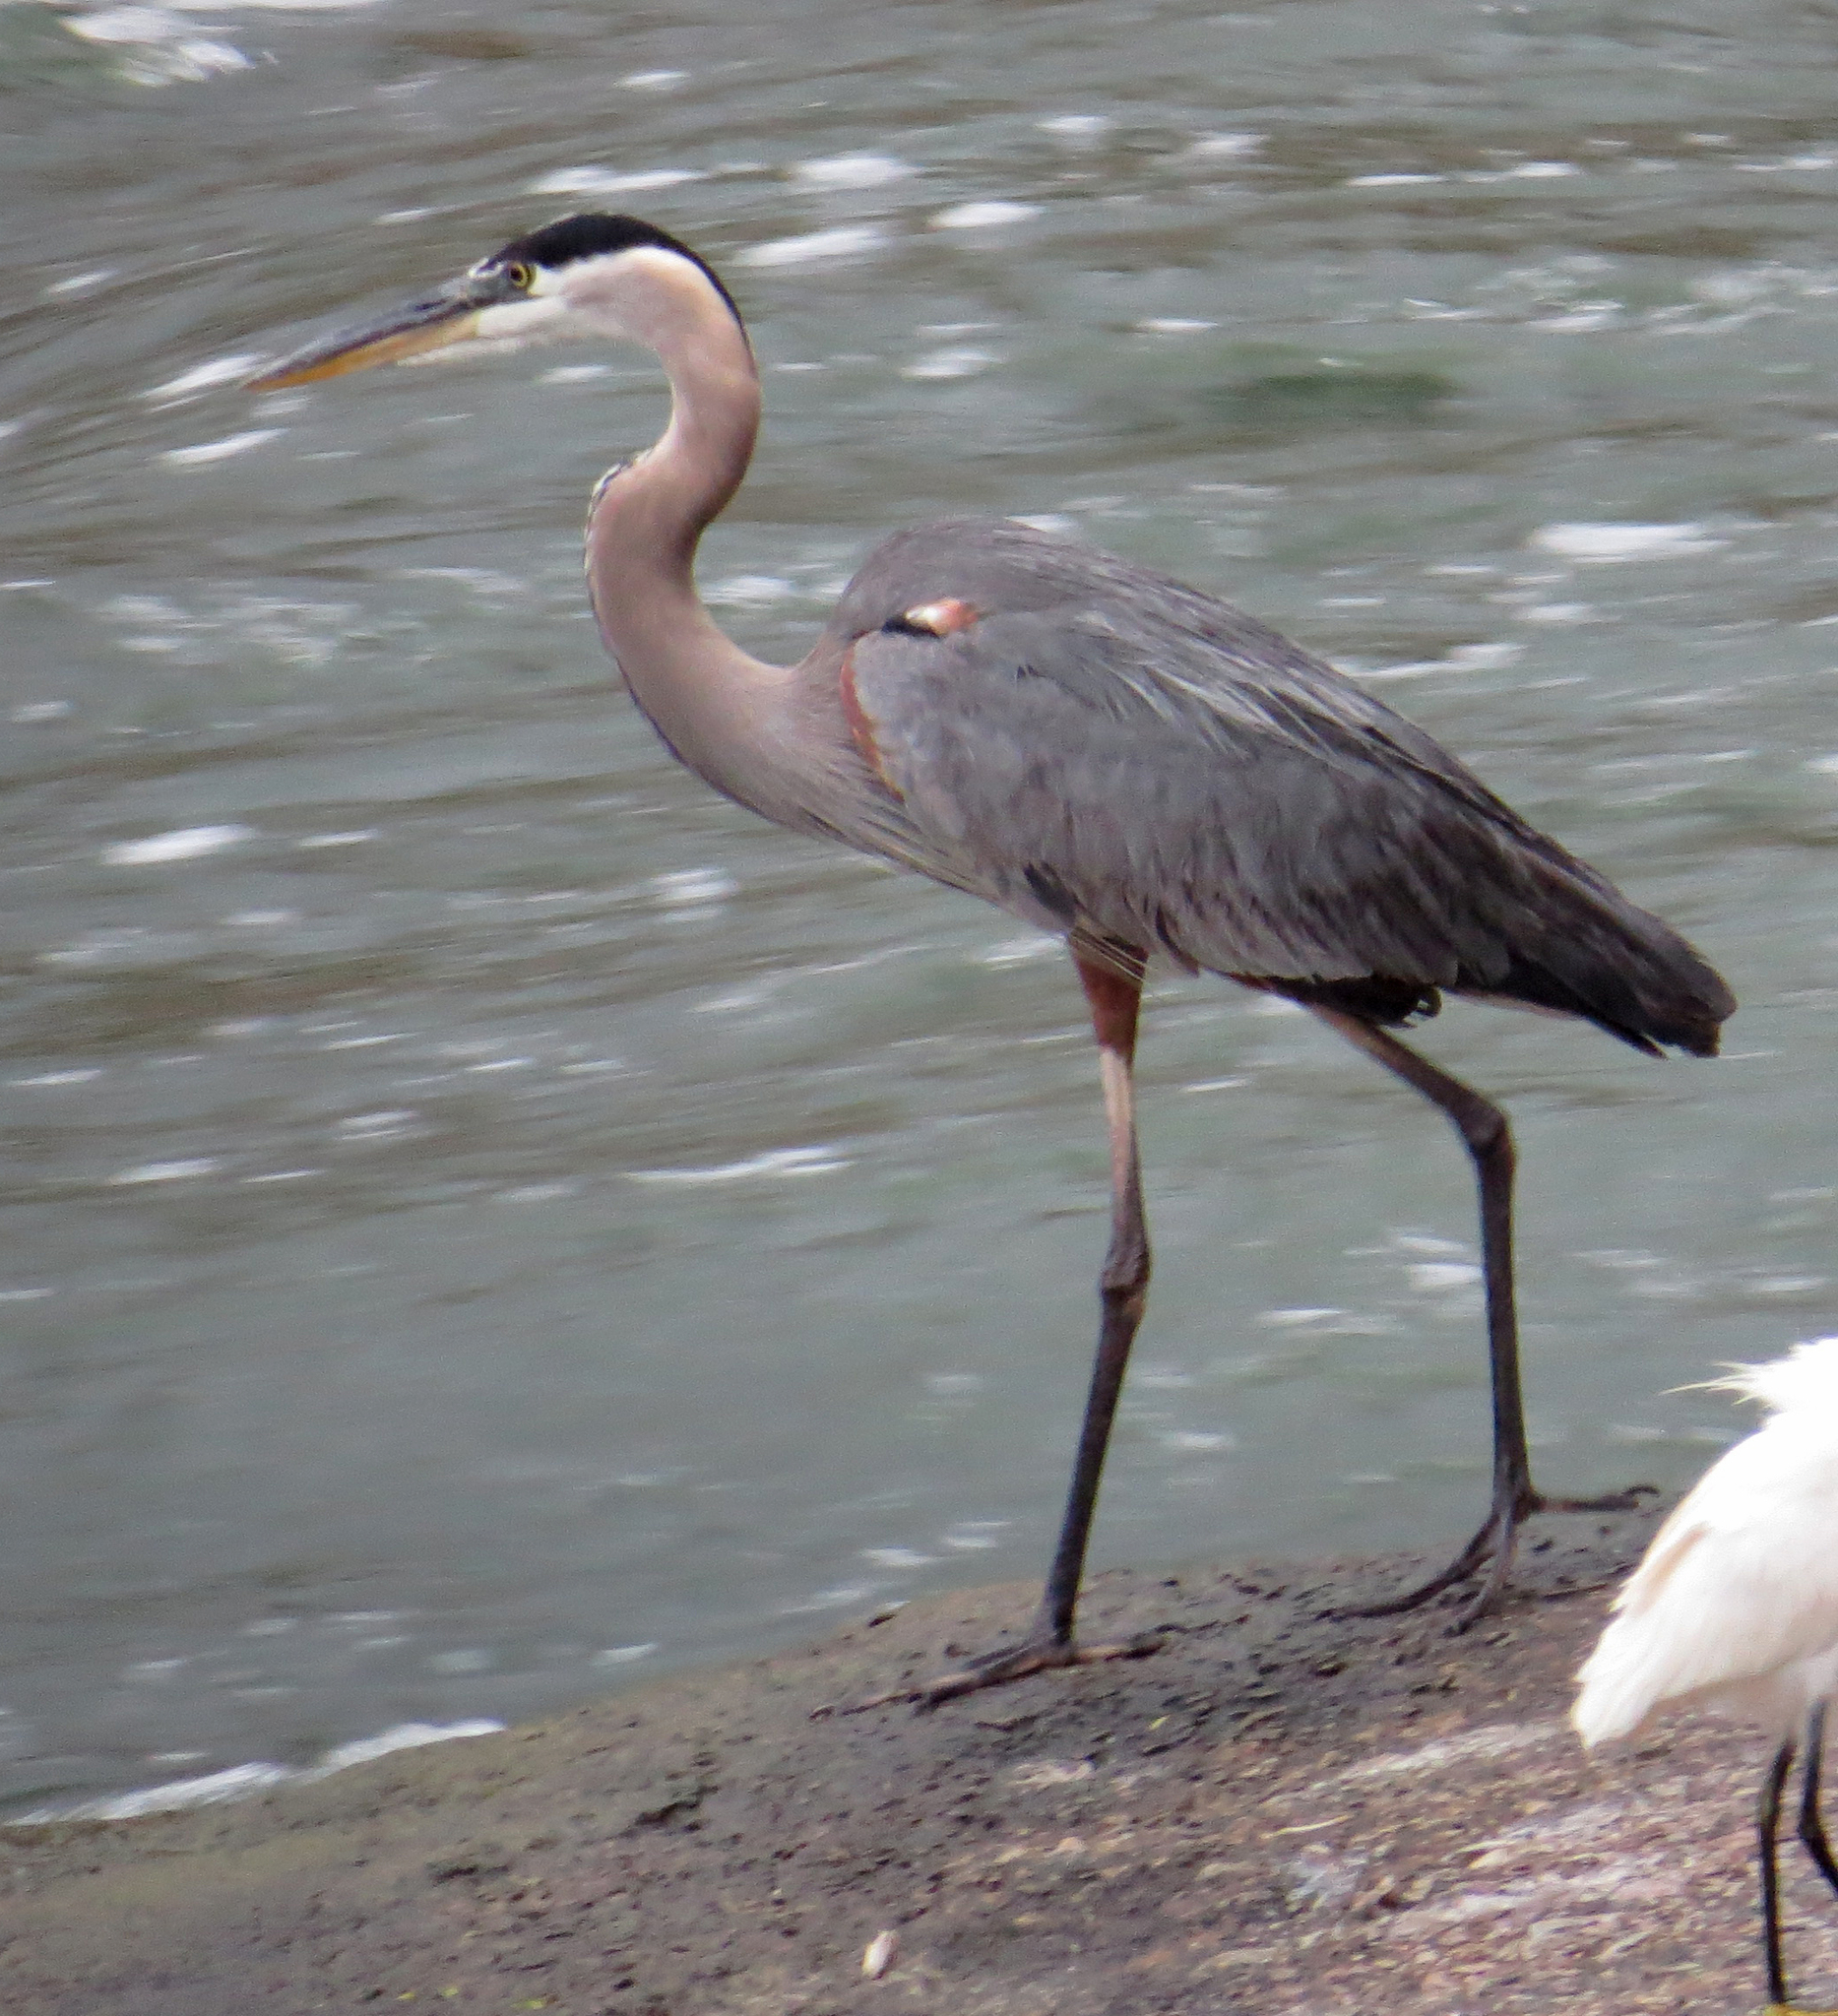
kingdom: Animalia
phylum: Chordata
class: Aves
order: Pelecaniformes
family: Ardeidae
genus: Ardea
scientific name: Ardea herodias
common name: Great blue heron
